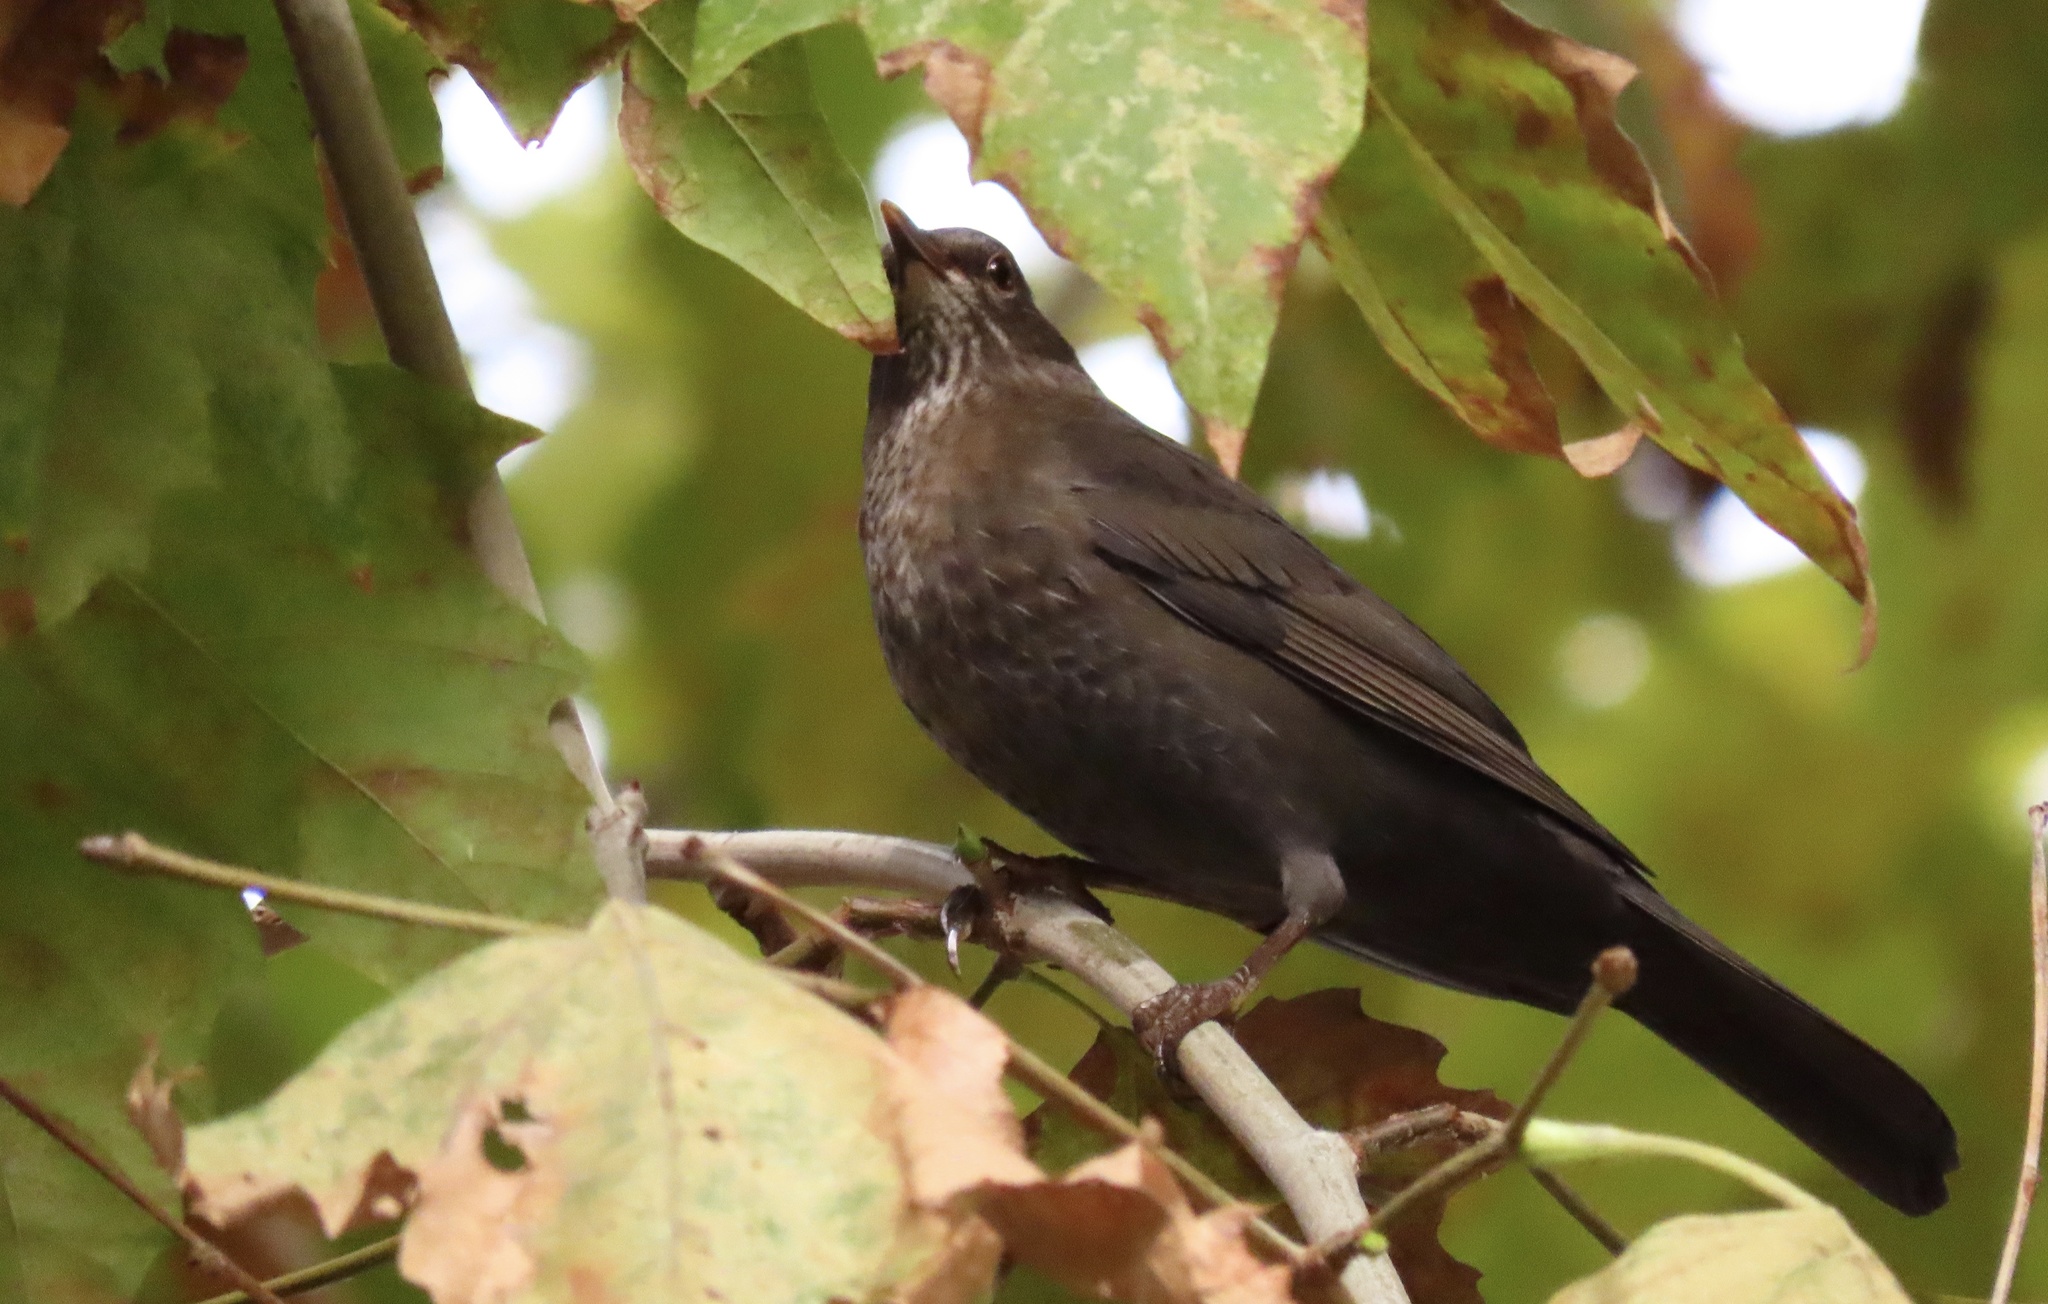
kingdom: Animalia
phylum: Chordata
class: Aves
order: Passeriformes
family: Turdidae
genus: Turdus
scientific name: Turdus merula
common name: Common blackbird
